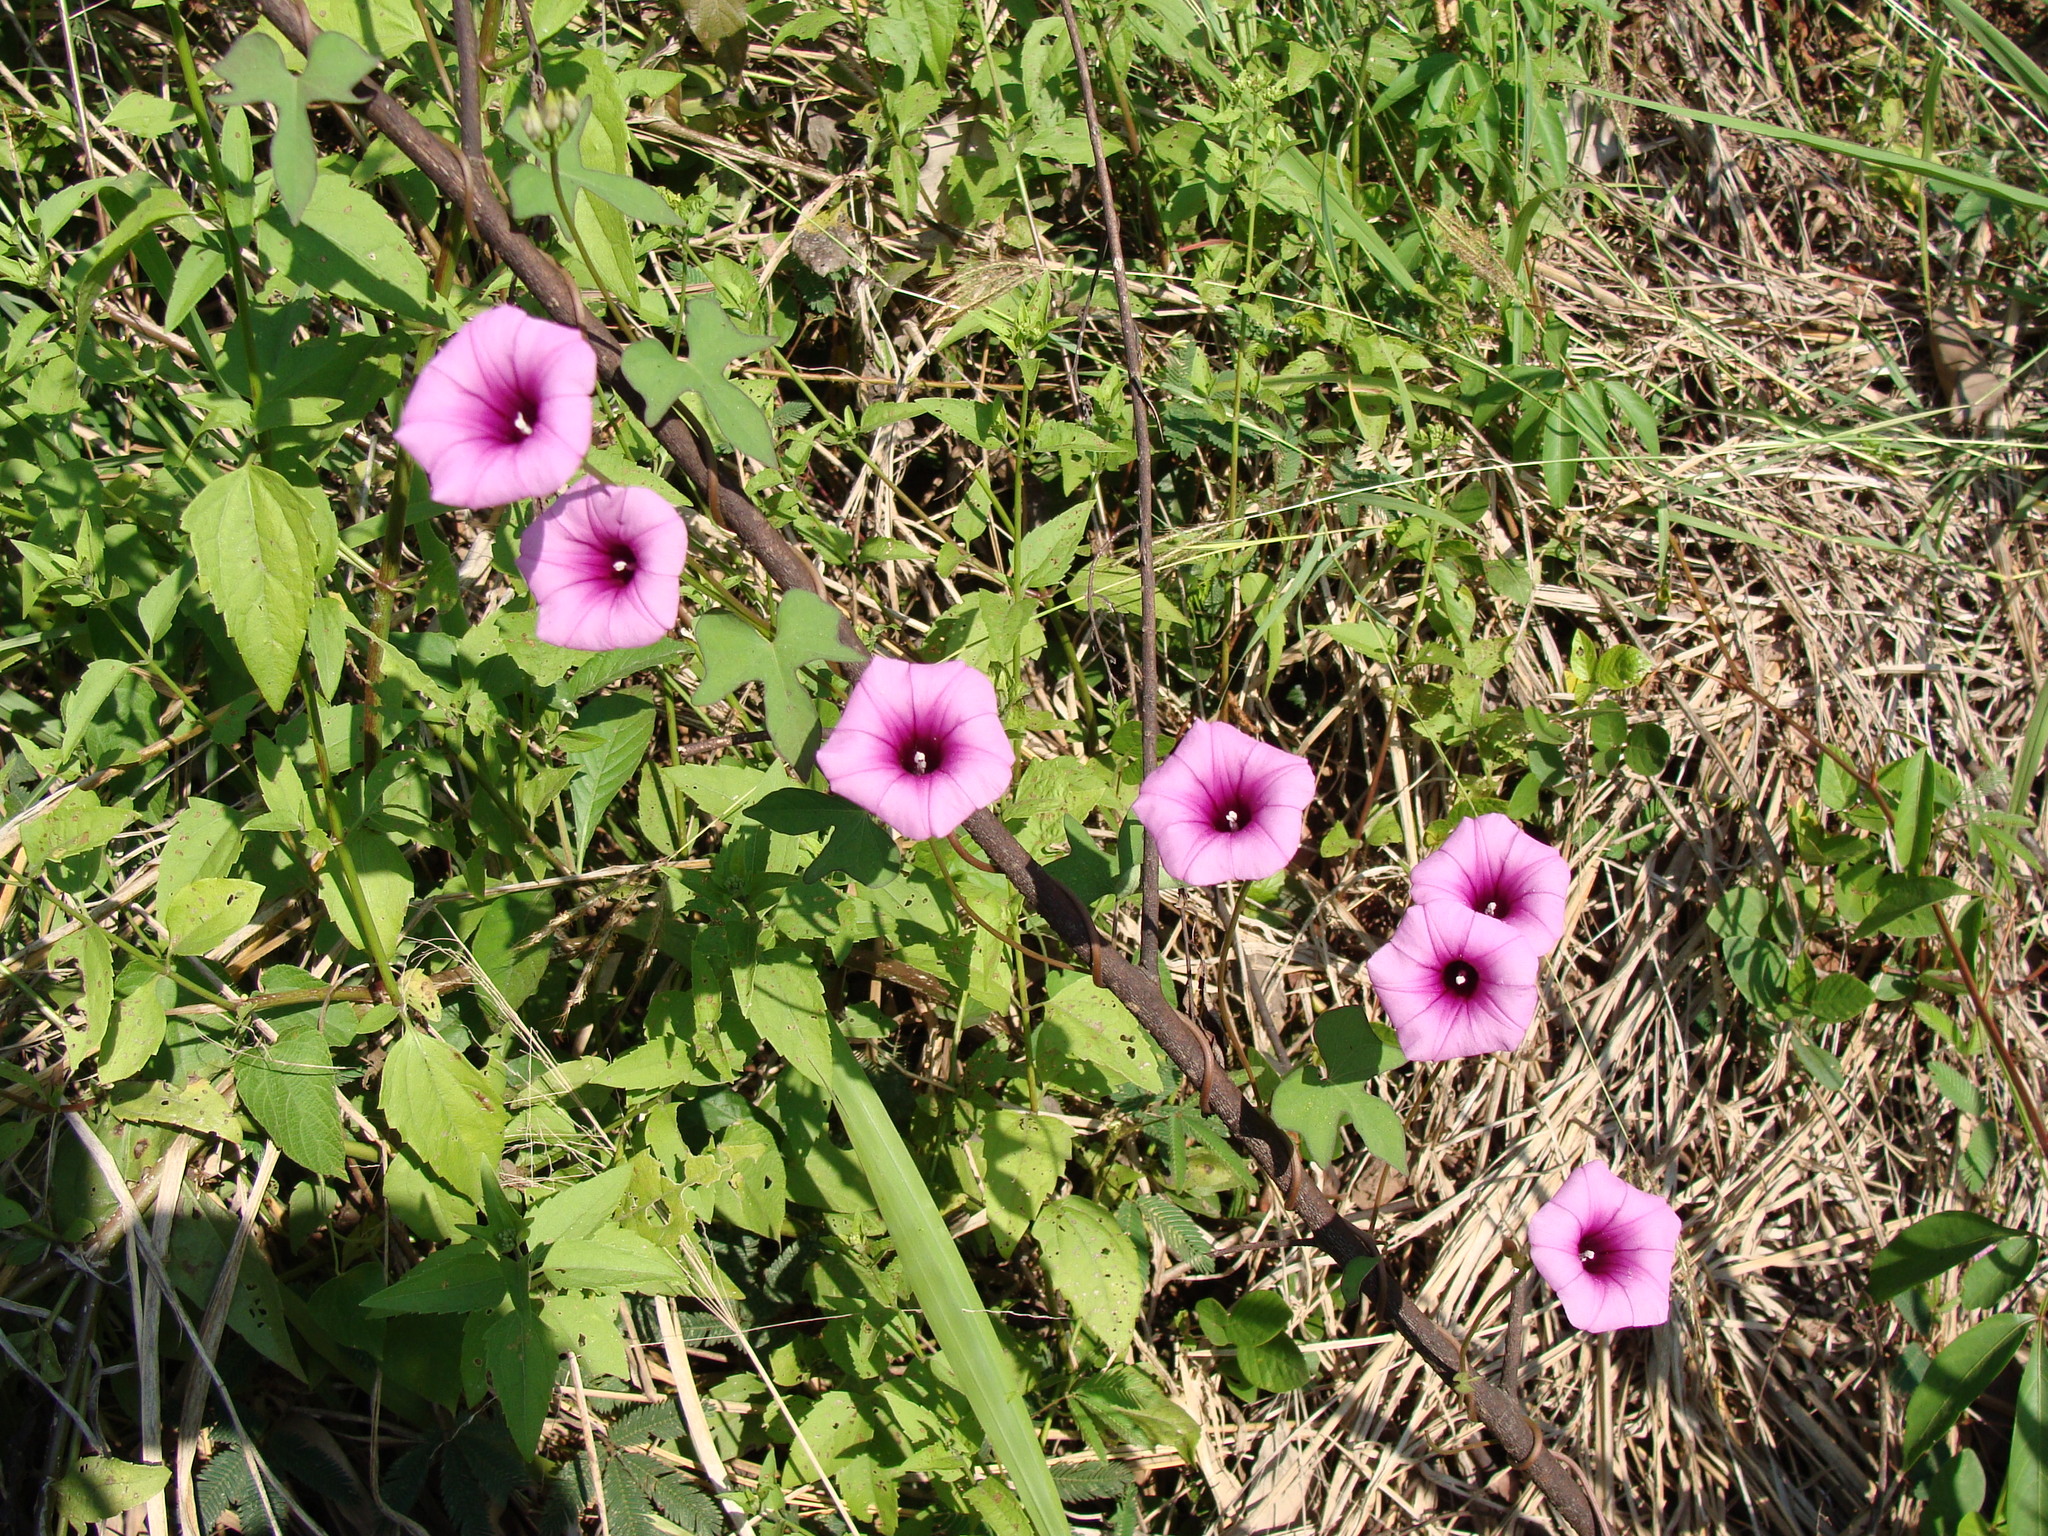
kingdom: Plantae
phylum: Tracheophyta
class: Magnoliopsida
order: Solanales
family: Convolvulaceae
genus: Ipomoea
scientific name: Ipomoea trifida
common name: Cotton morningglory
